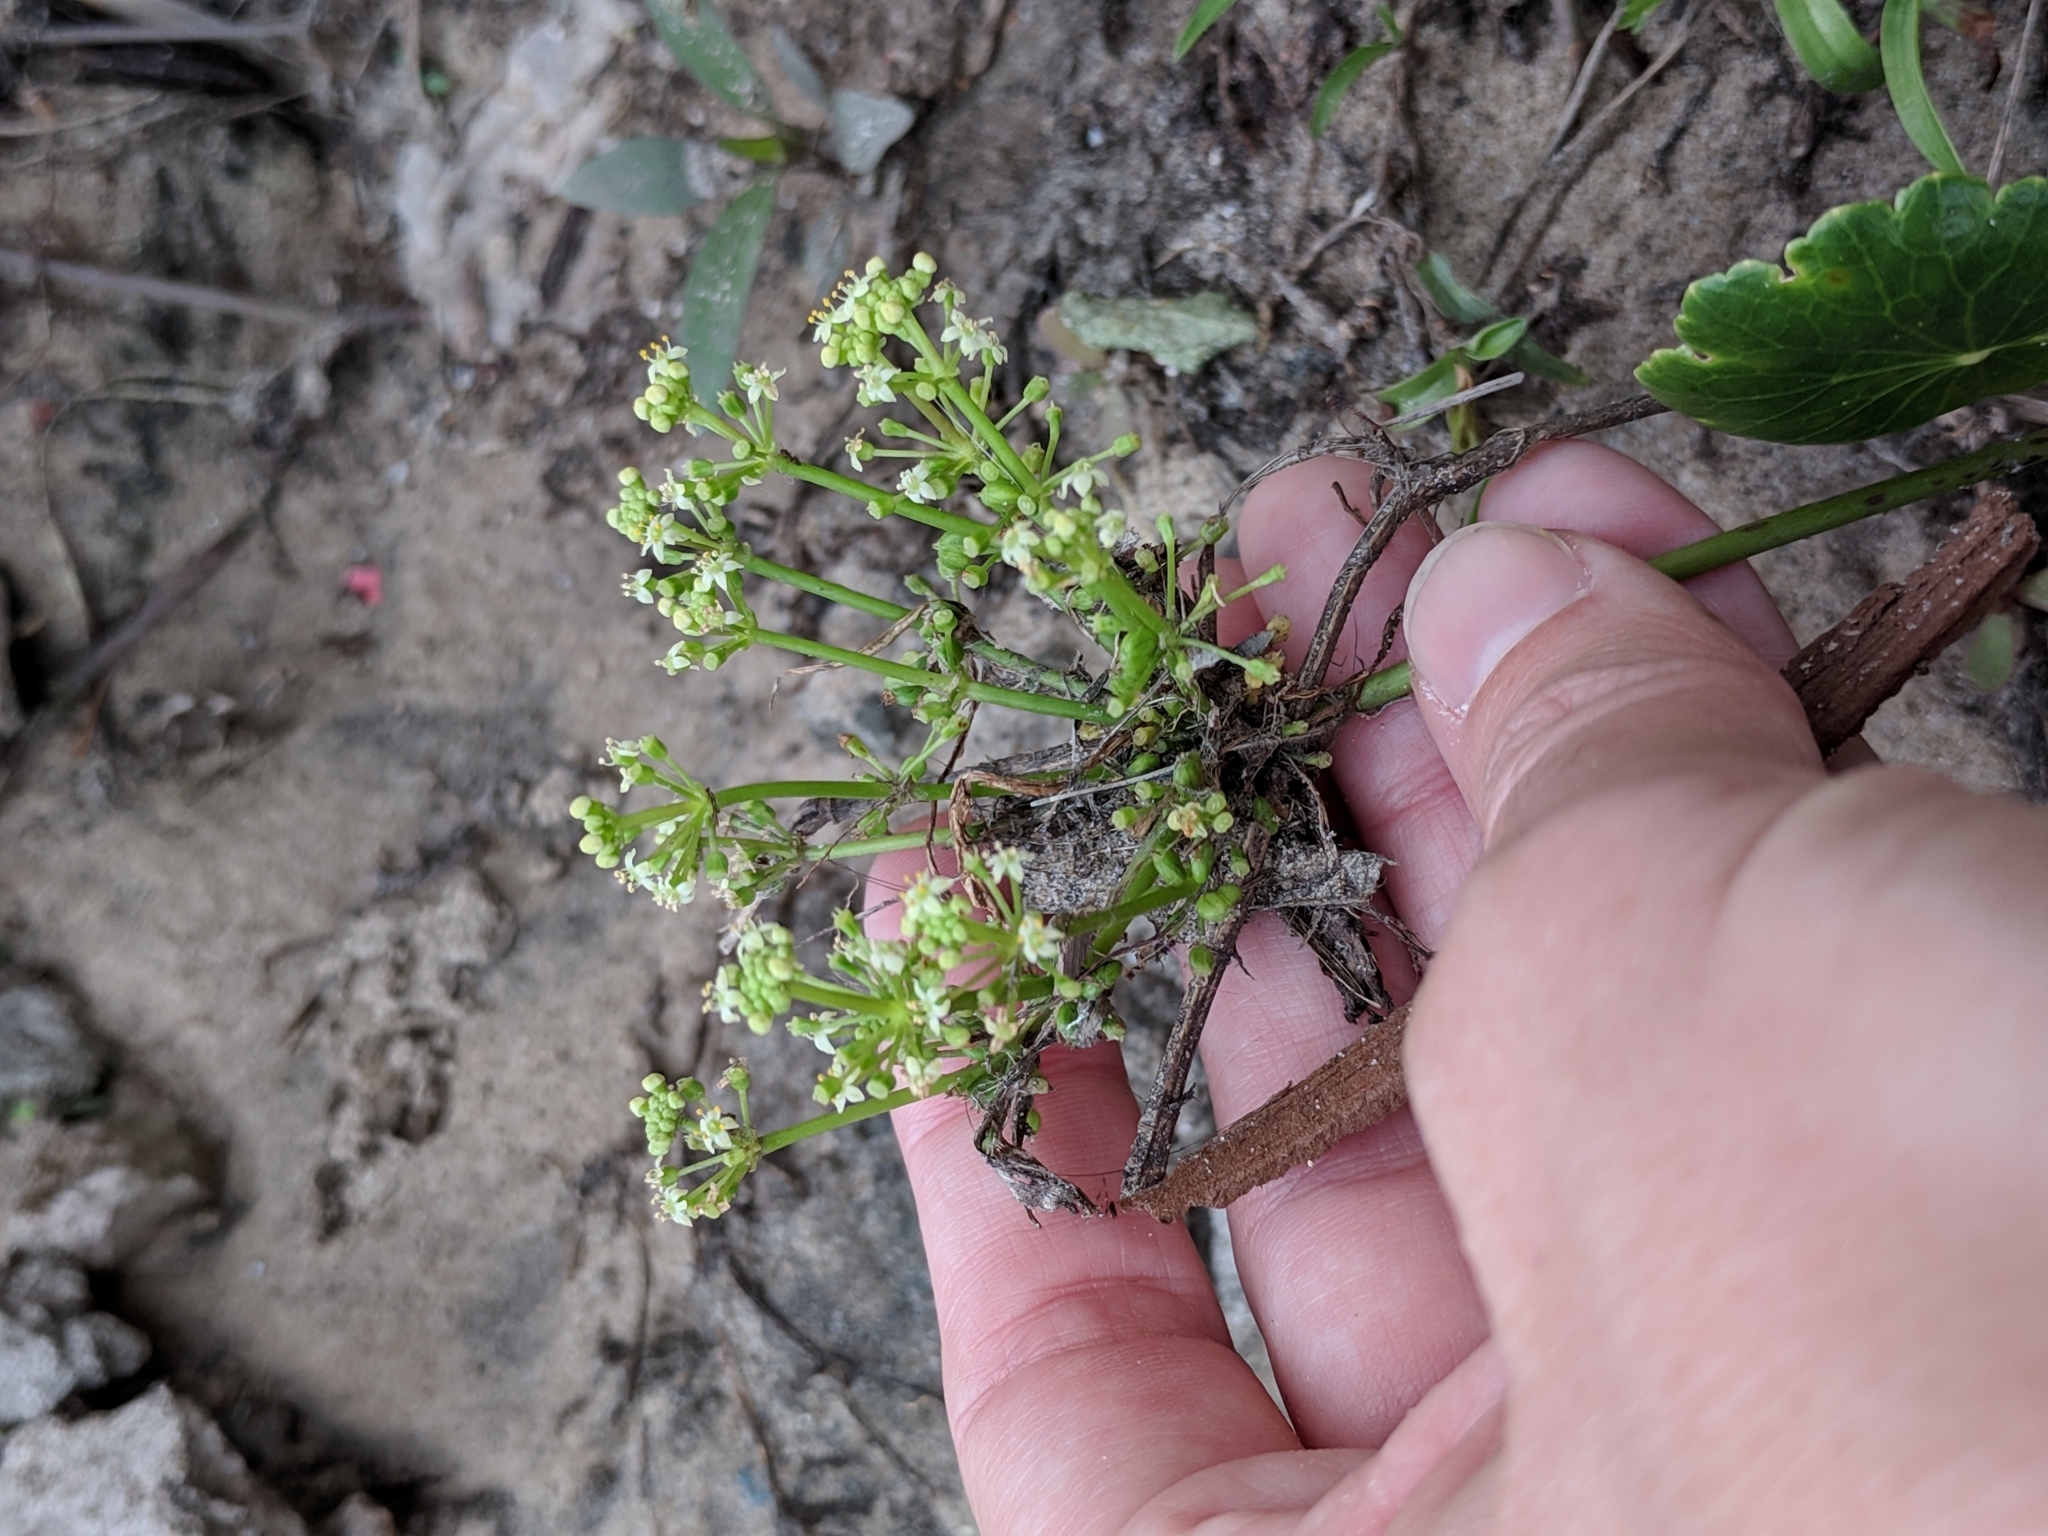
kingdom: Plantae
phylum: Tracheophyta
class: Magnoliopsida
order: Apiales
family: Araliaceae
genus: Hydrocotyle
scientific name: Hydrocotyle bonariensis
